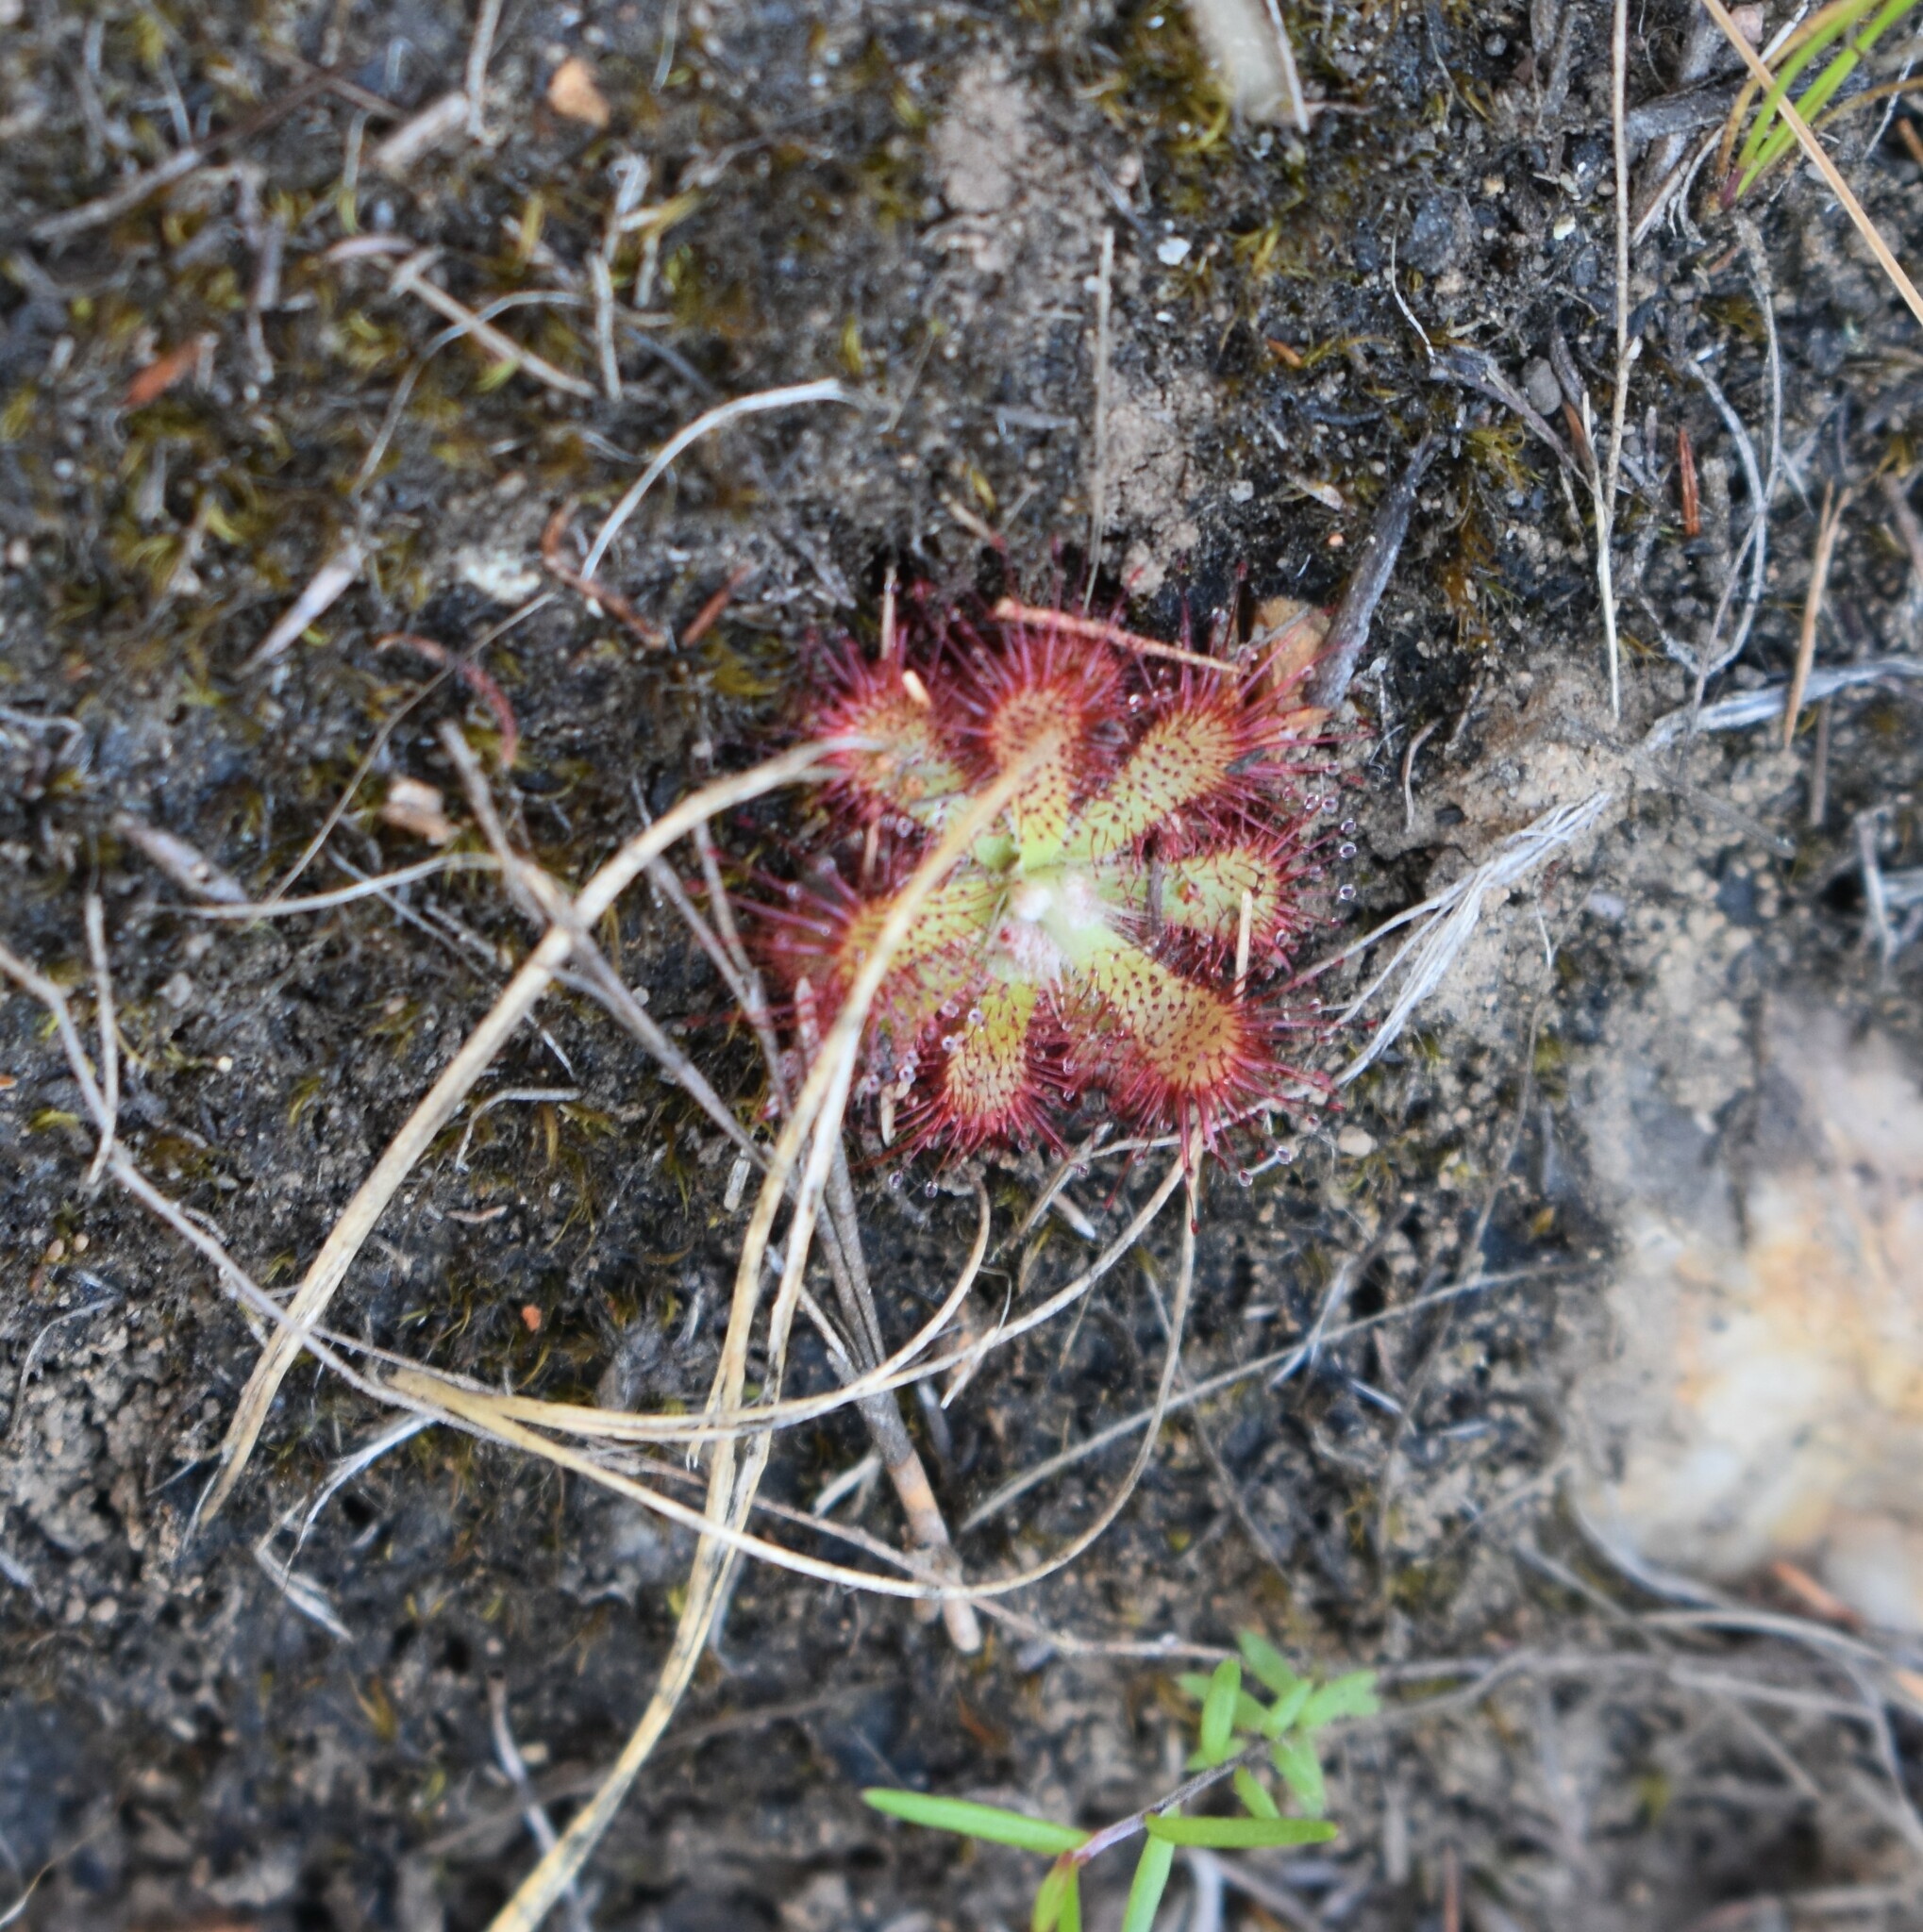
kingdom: Plantae
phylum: Tracheophyta
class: Magnoliopsida
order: Caryophyllales
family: Droseraceae
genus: Drosera
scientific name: Drosera aliciae
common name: Alice sundew
